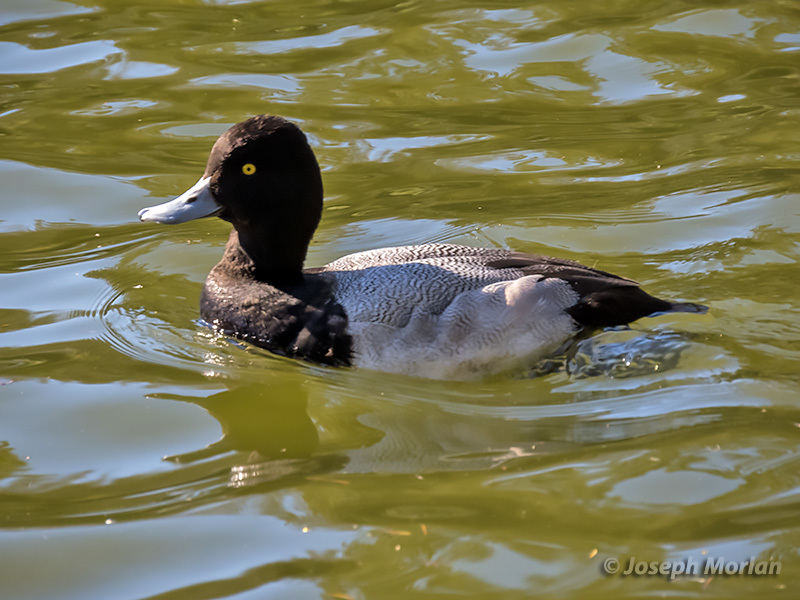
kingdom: Animalia
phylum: Chordata
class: Aves
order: Anseriformes
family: Anatidae
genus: Aythya
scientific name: Aythya affinis
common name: Lesser scaup
